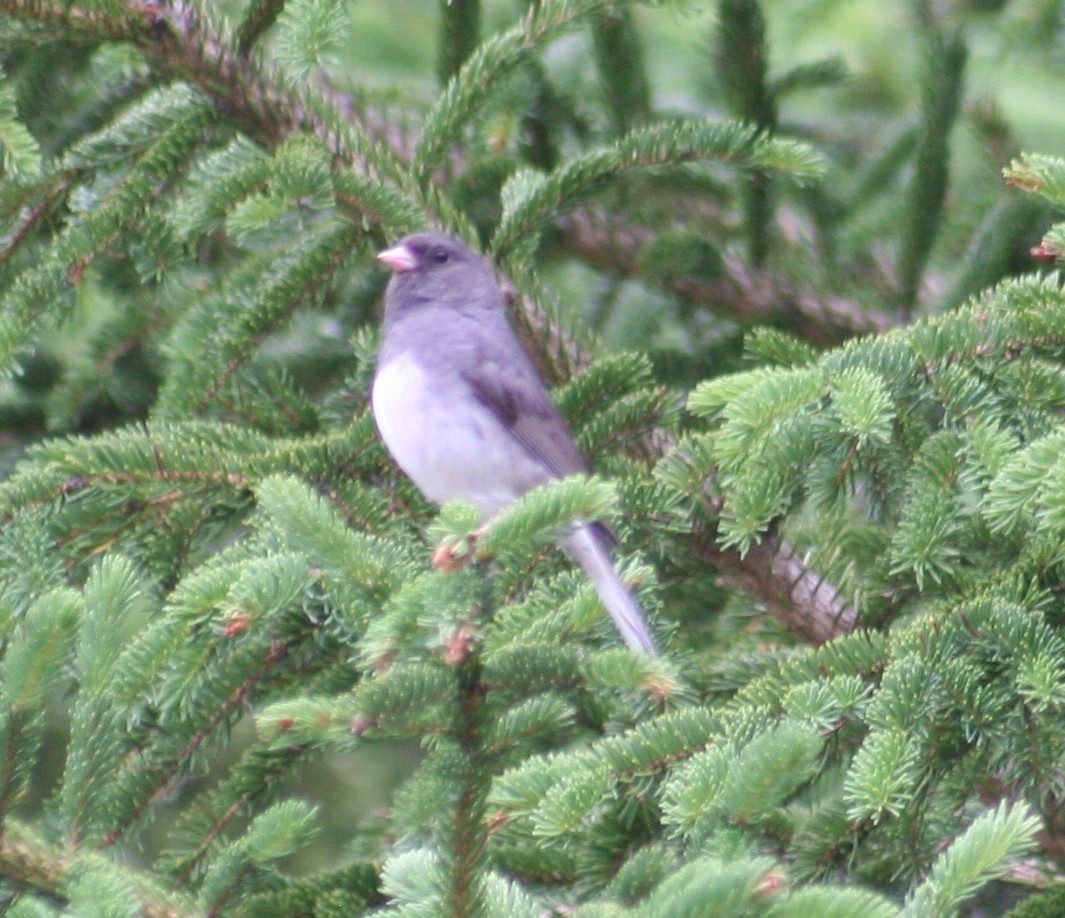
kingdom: Animalia
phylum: Chordata
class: Aves
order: Passeriformes
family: Passerellidae
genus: Junco
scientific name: Junco hyemalis
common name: Dark-eyed junco
